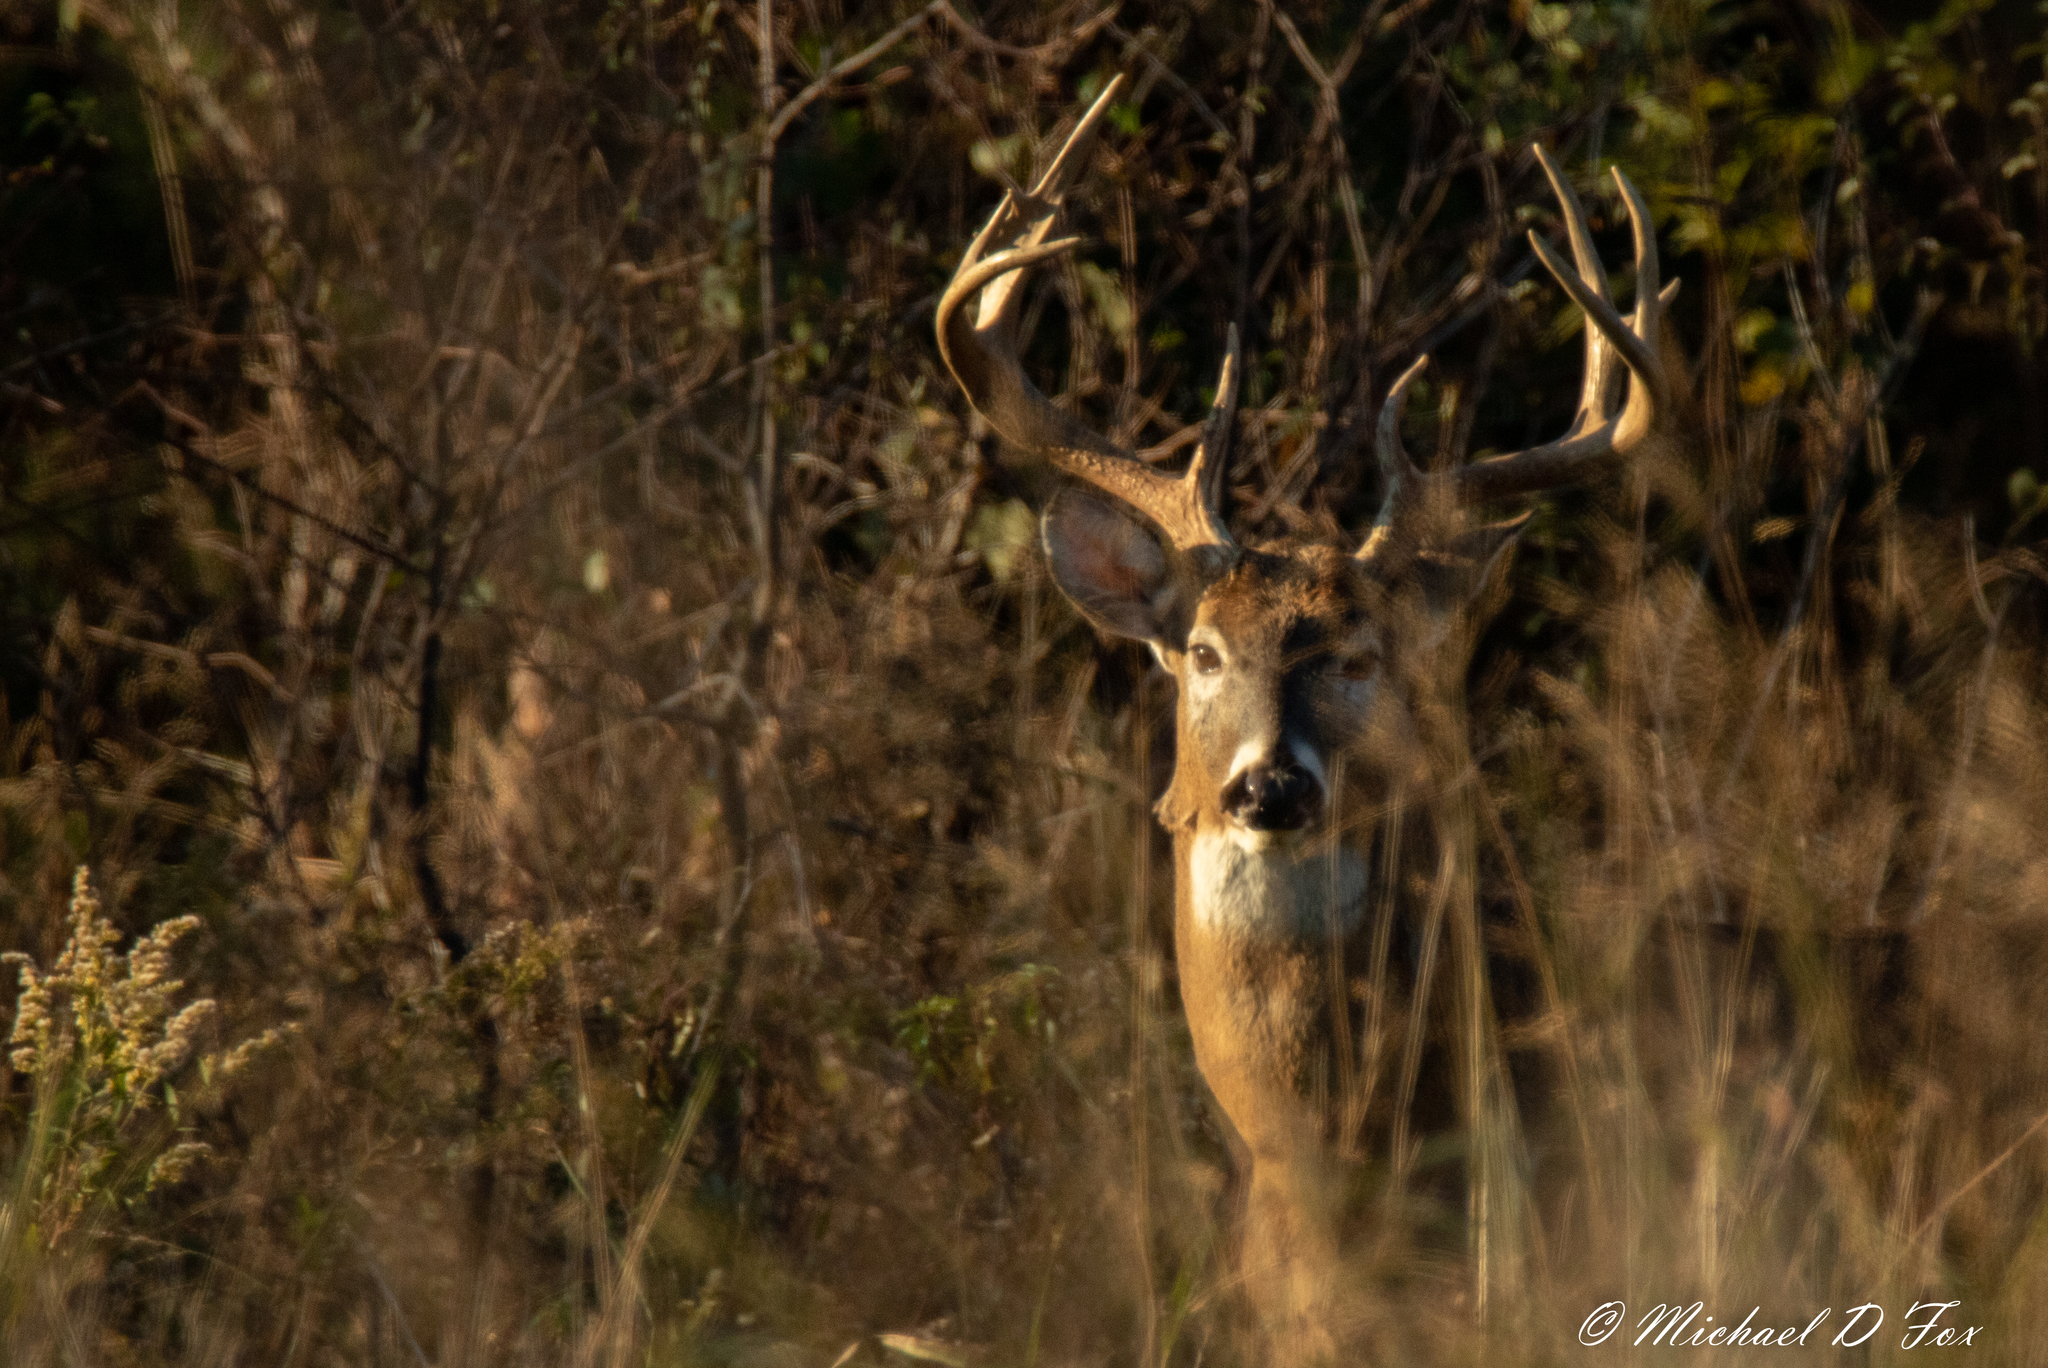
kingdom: Animalia
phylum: Chordata
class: Mammalia
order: Artiodactyla
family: Cervidae
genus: Odocoileus
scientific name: Odocoileus virginianus
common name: White-tailed deer
